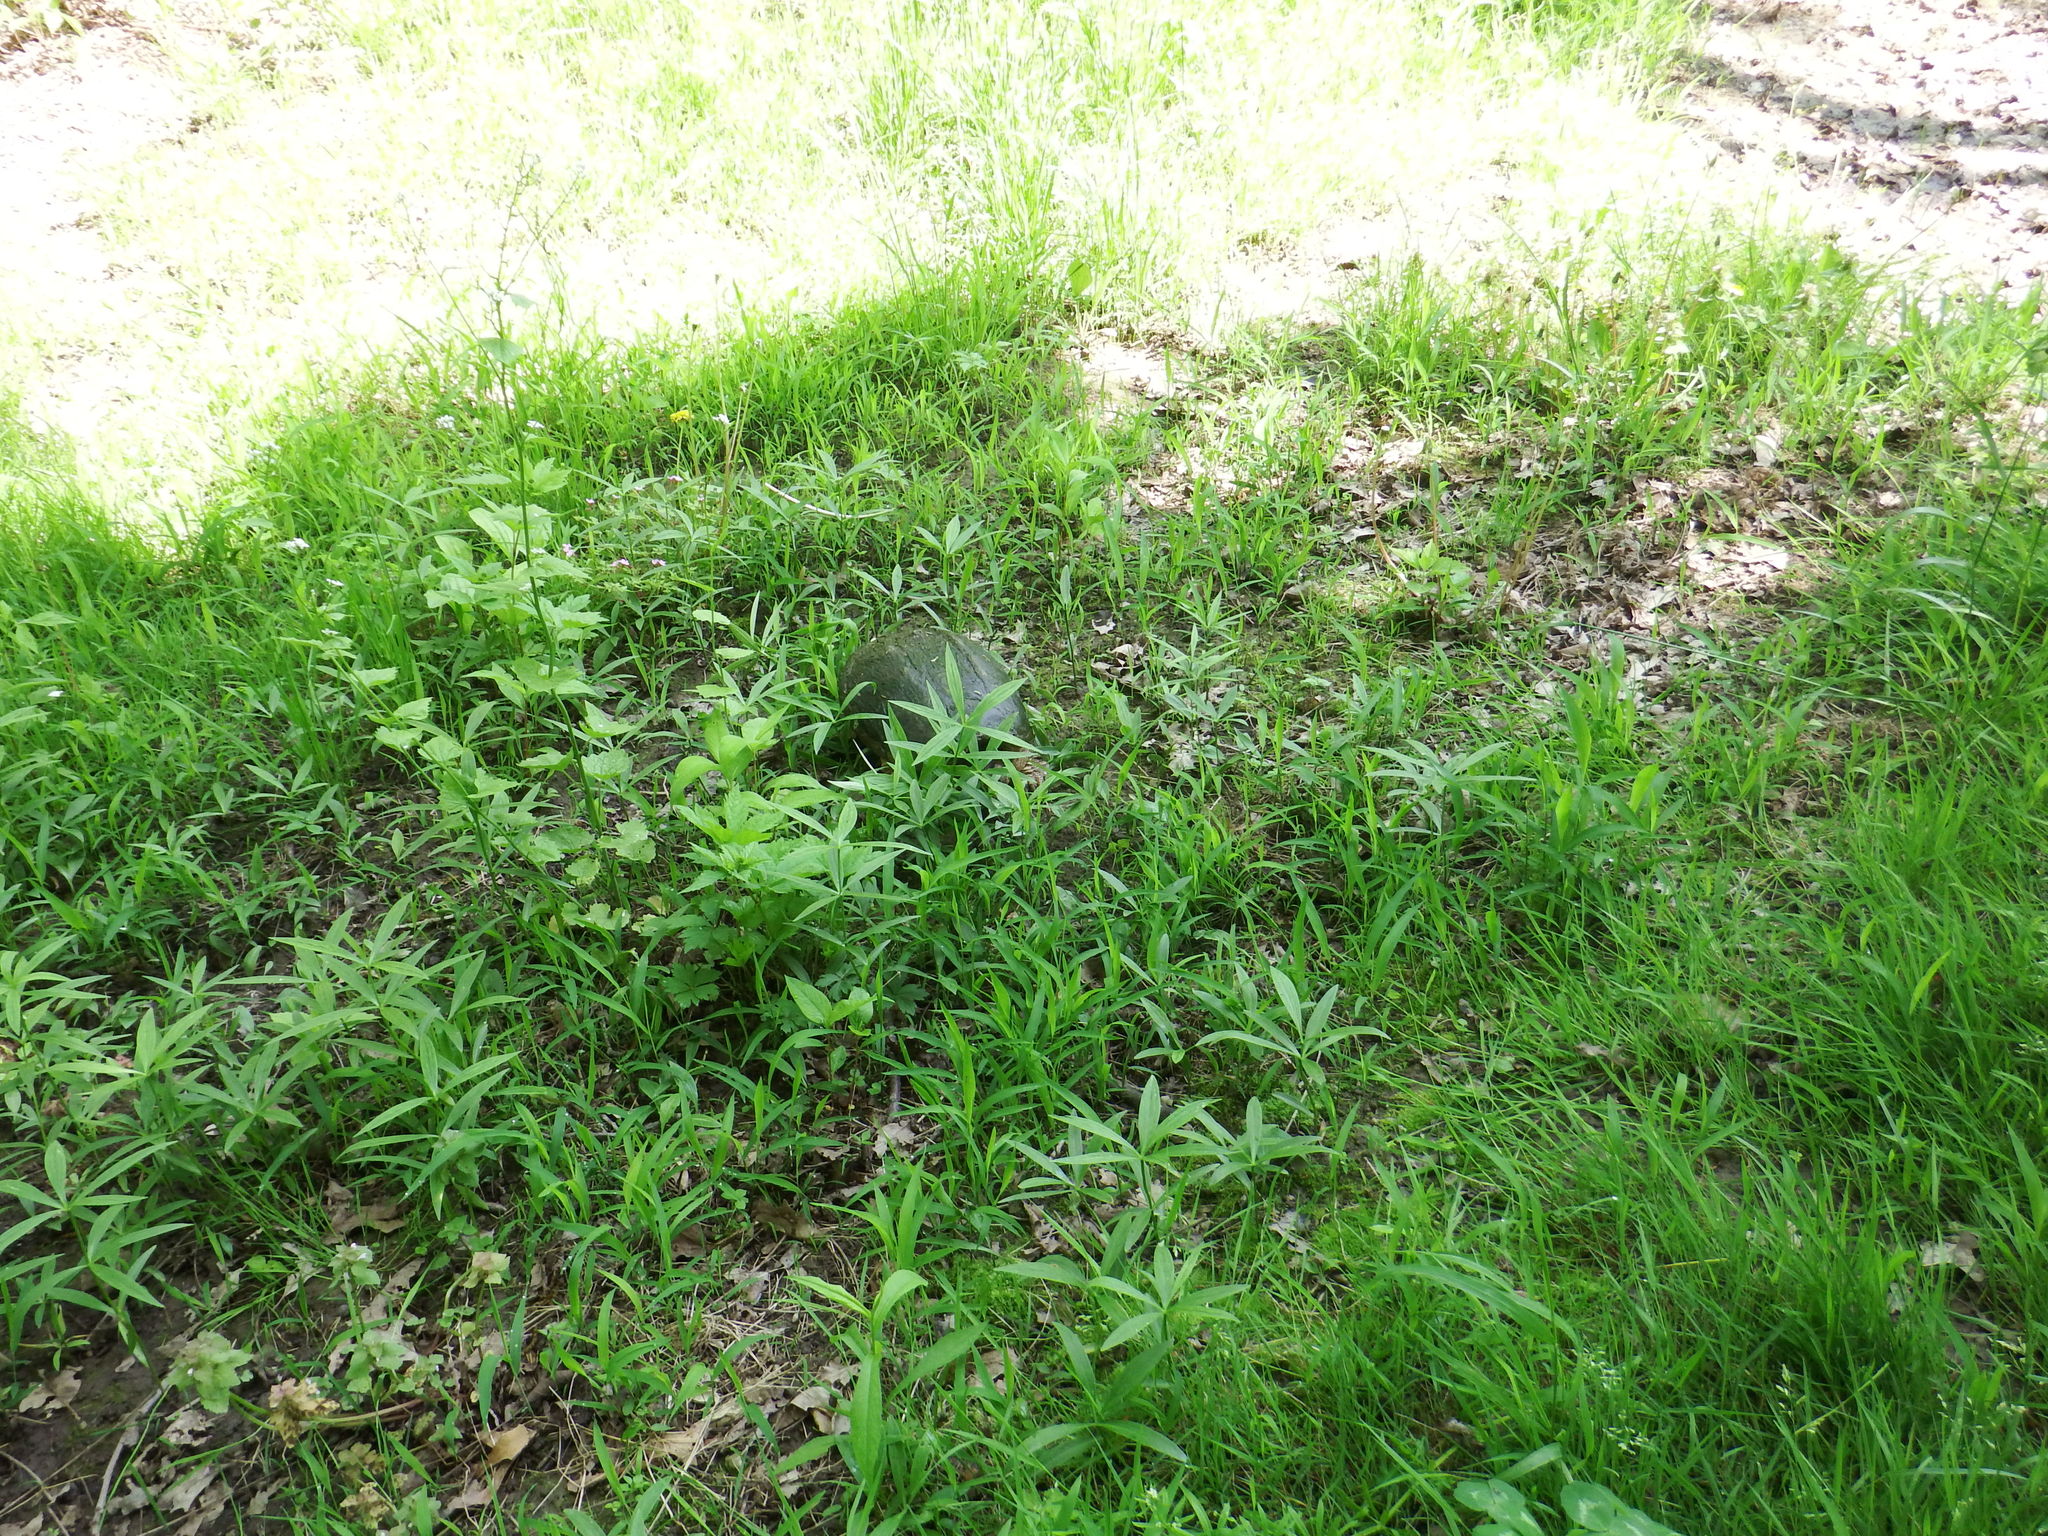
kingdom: Animalia
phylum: Chordata
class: Testudines
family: Chelydridae
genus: Chelydra
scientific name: Chelydra serpentina
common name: Common snapping turtle
